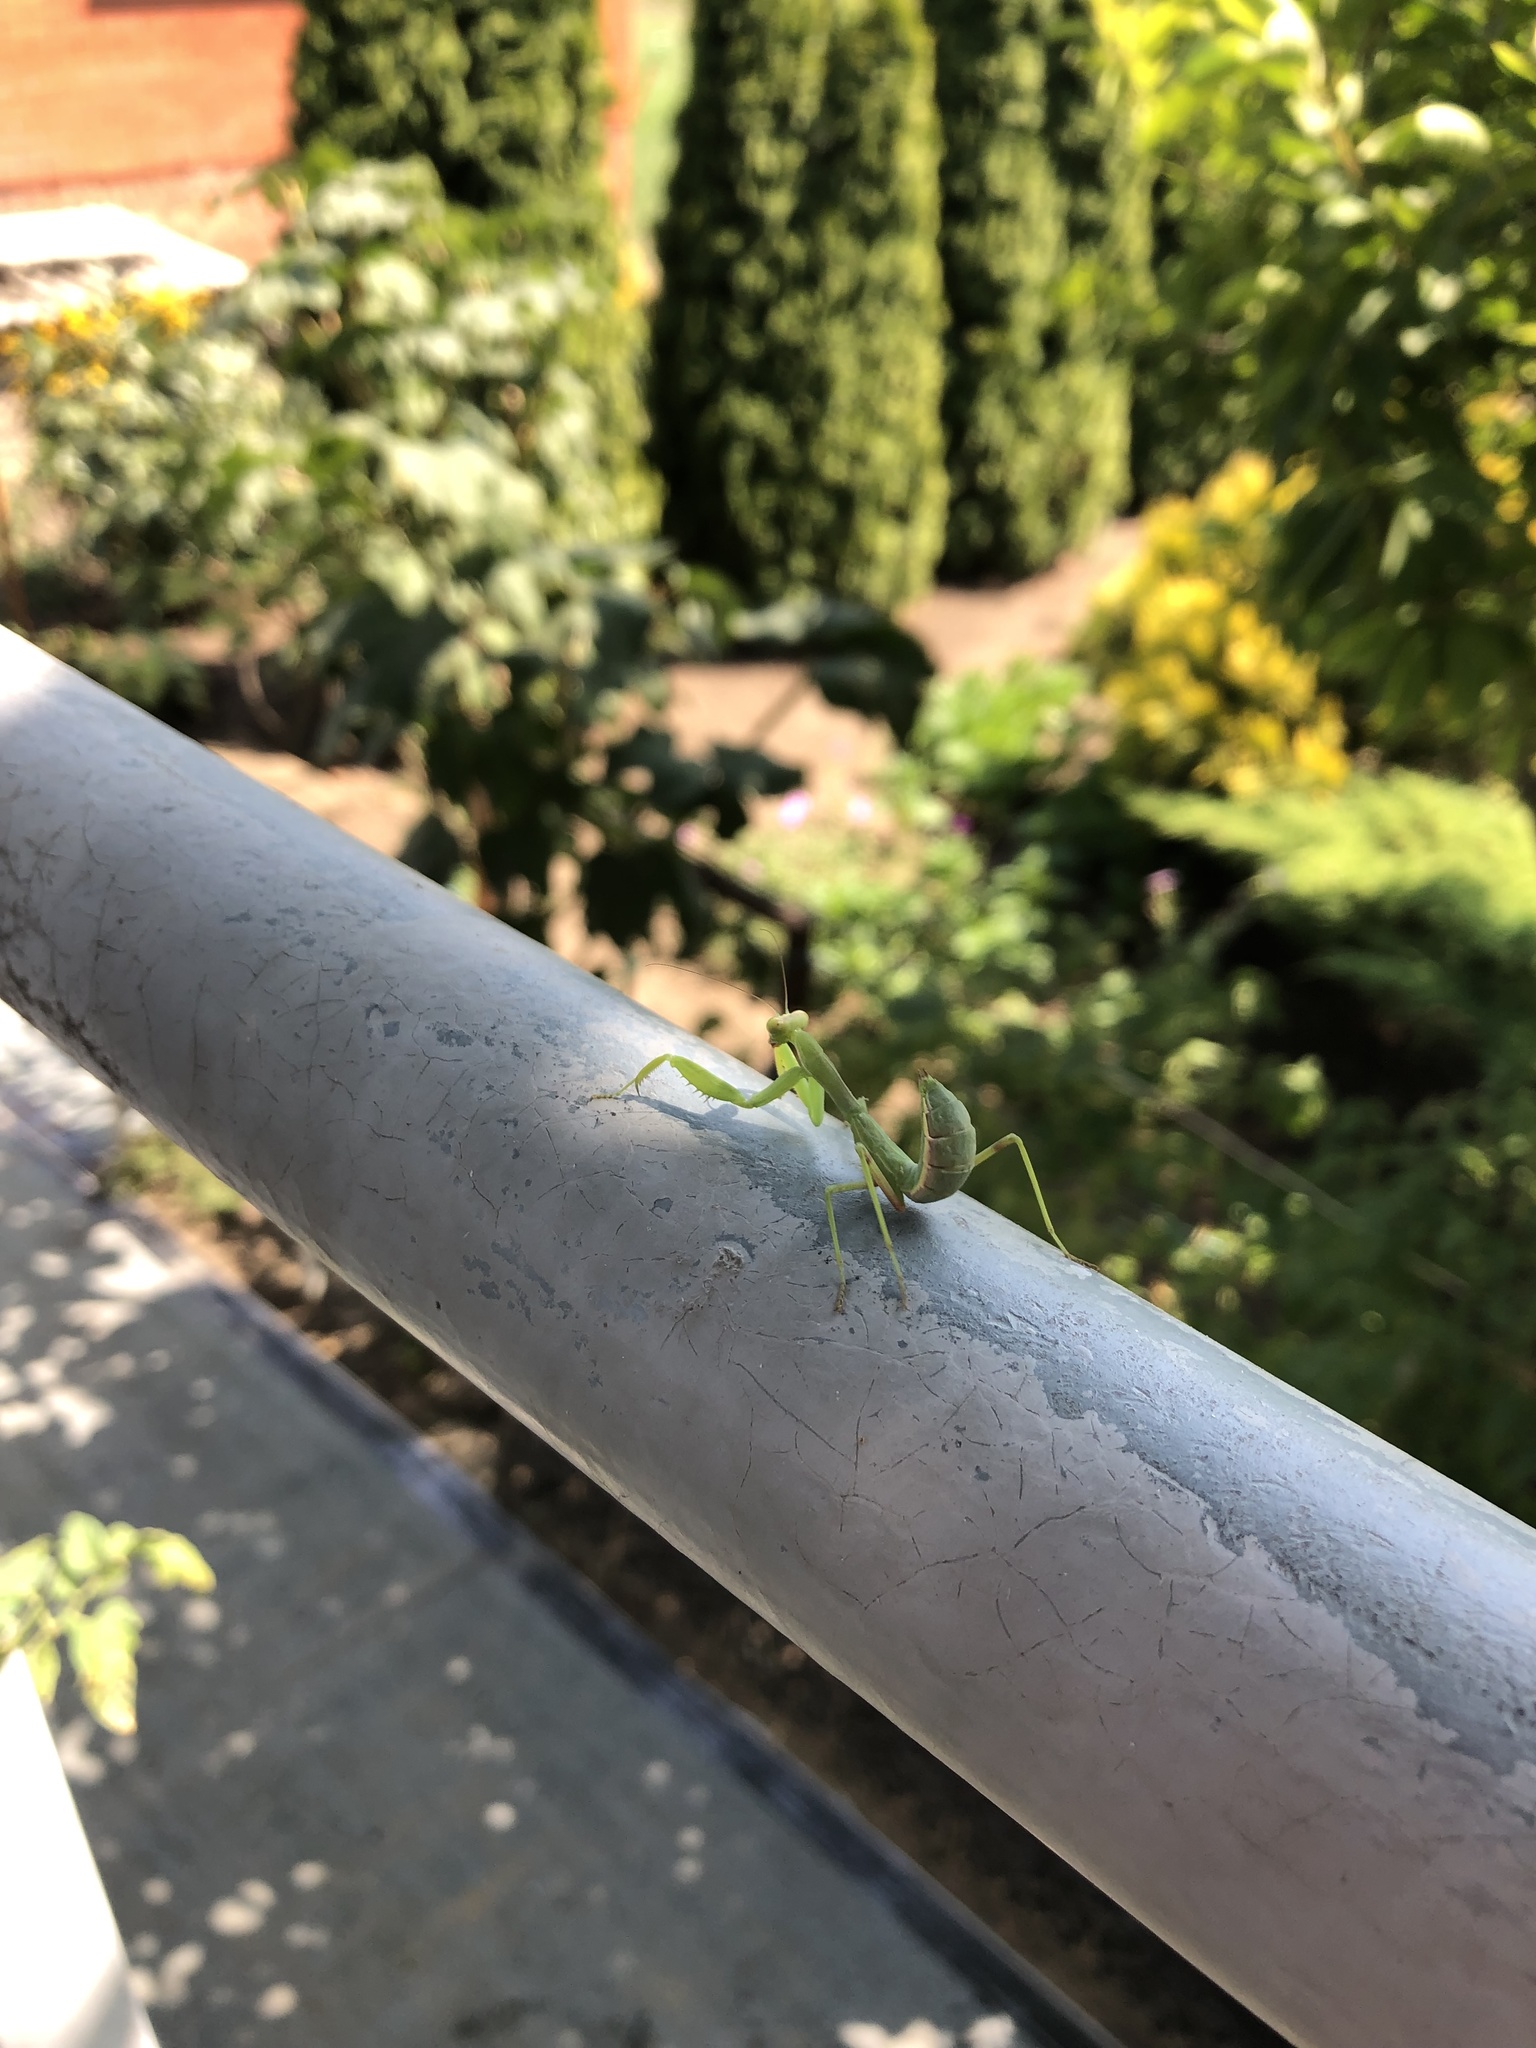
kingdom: Animalia
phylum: Arthropoda
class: Insecta
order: Mantodea
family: Mantidae
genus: Hierodula
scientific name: Hierodula transcaucasica
